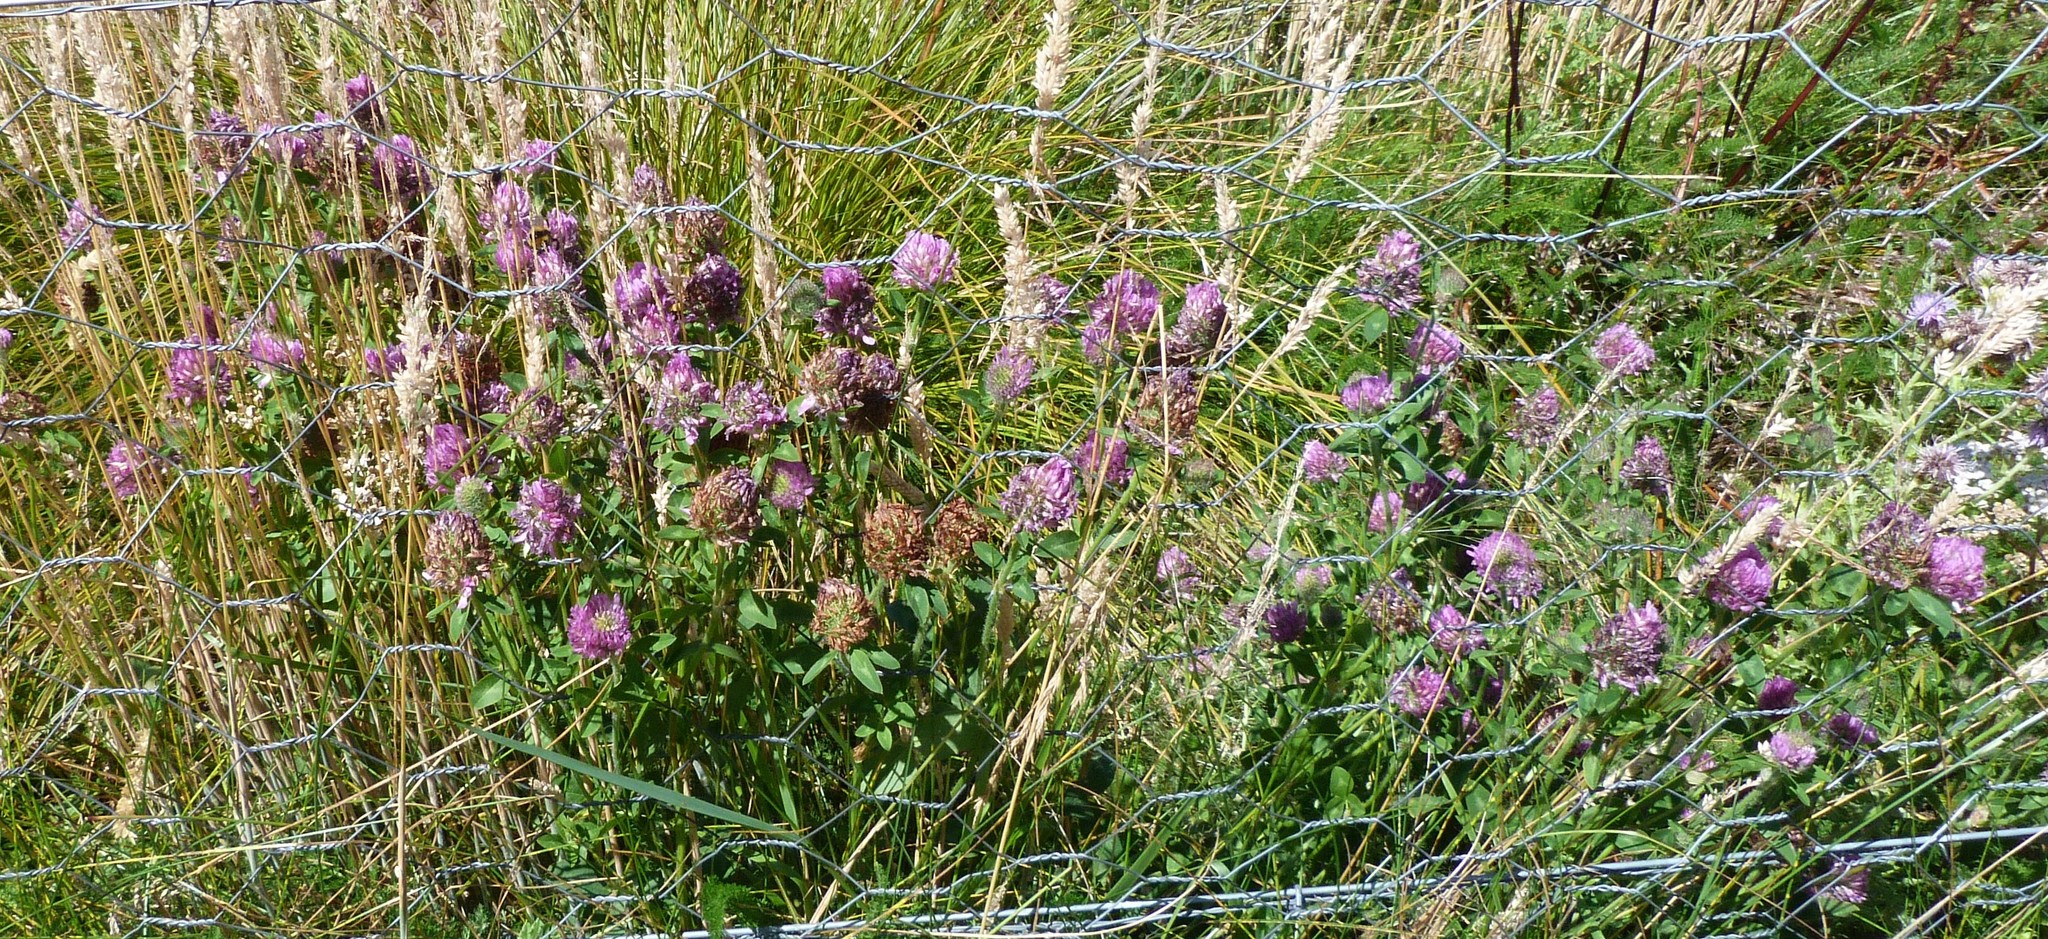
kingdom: Plantae
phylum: Tracheophyta
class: Magnoliopsida
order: Fabales
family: Fabaceae
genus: Trifolium
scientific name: Trifolium pratense
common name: Red clover
